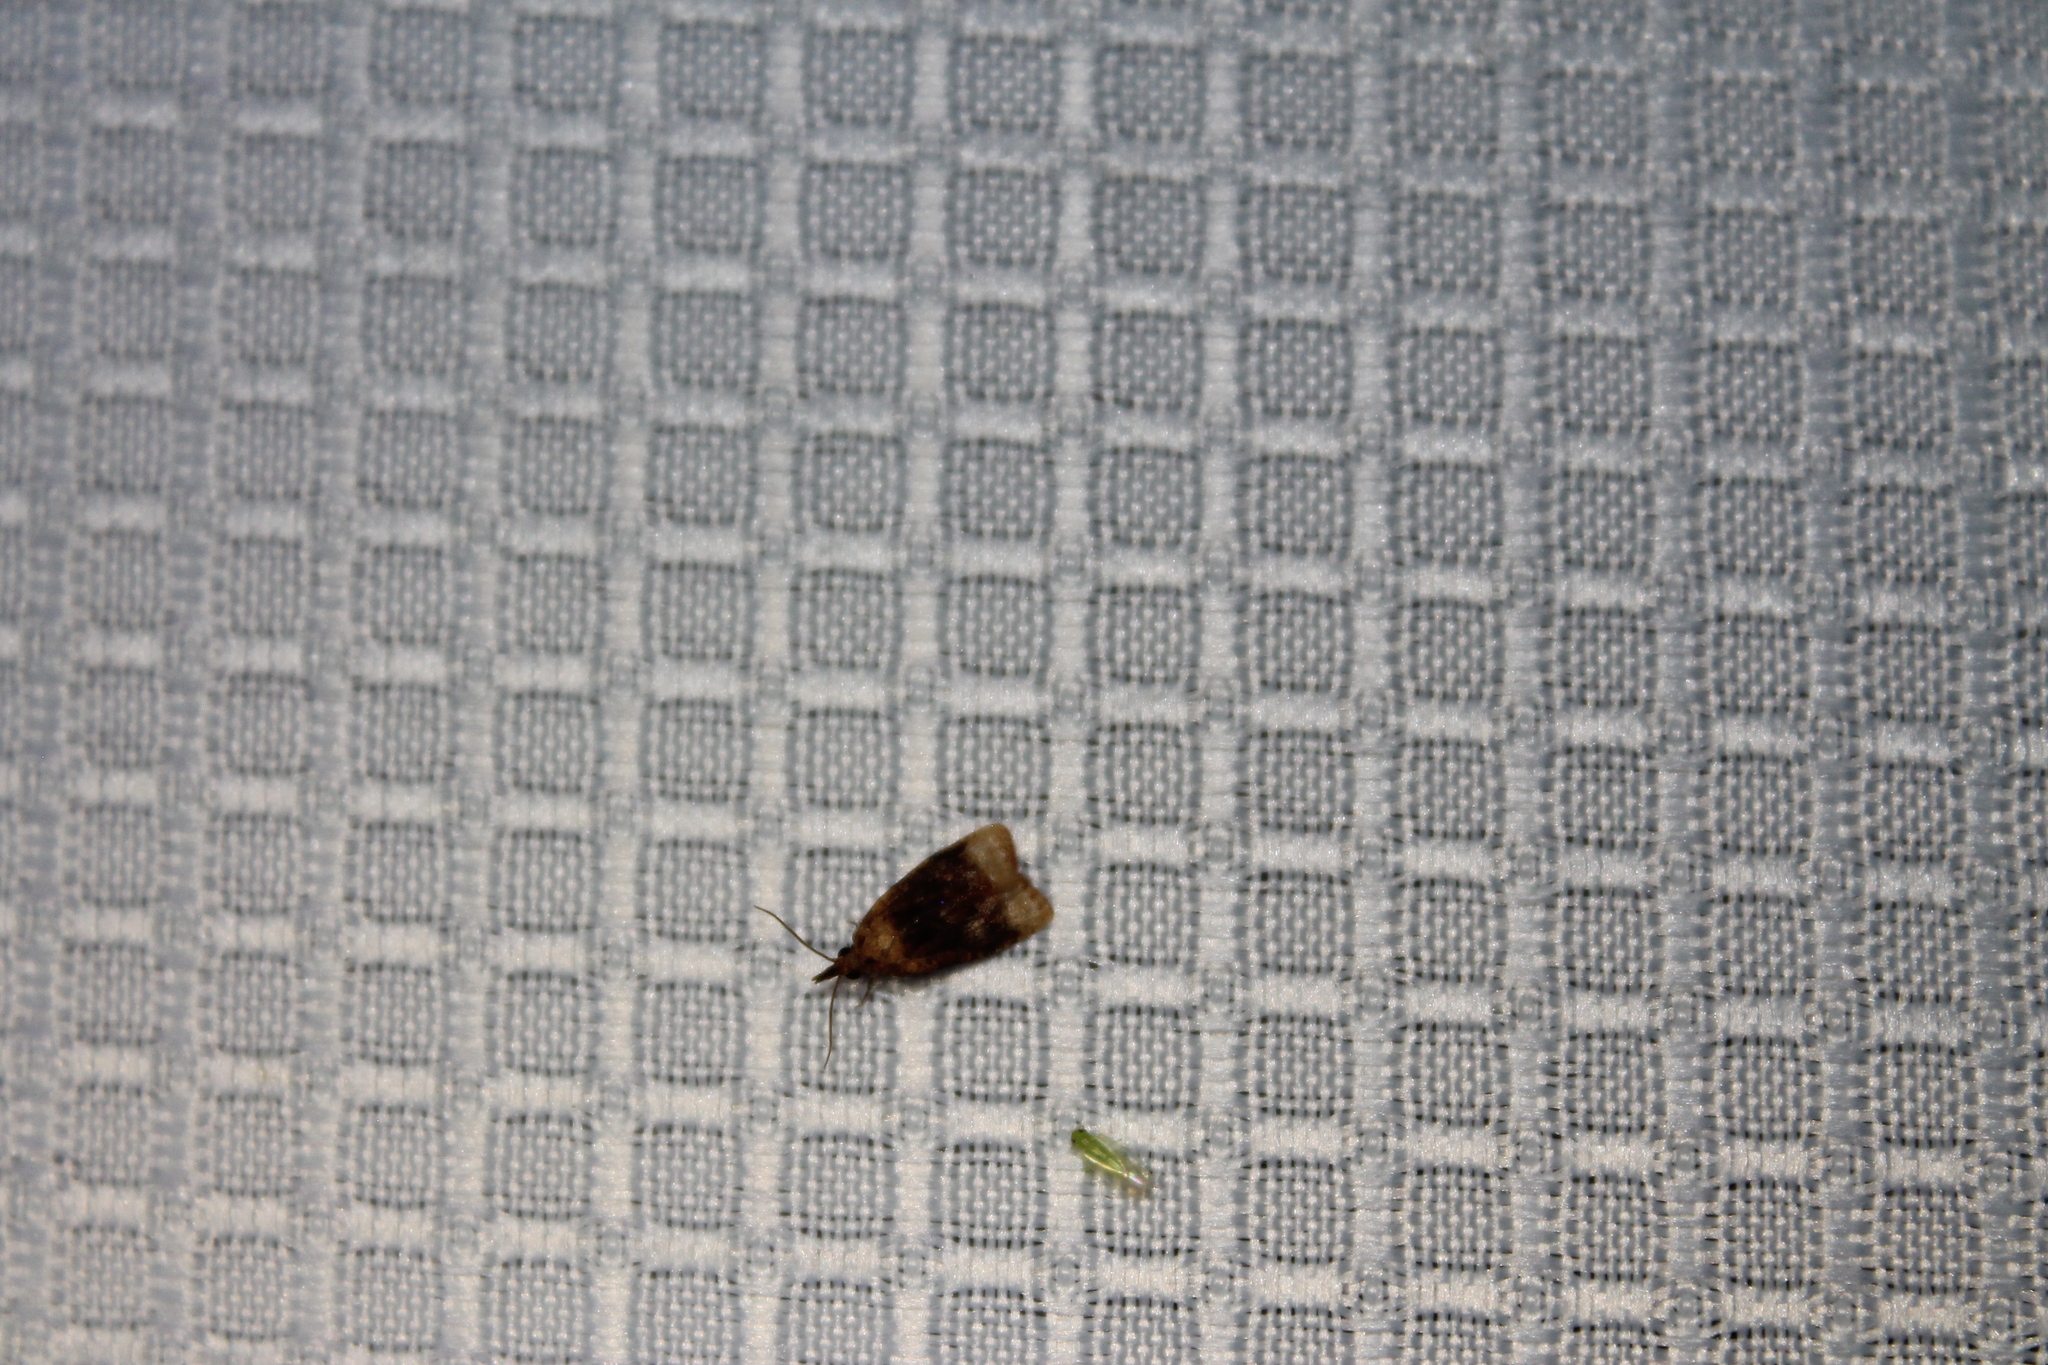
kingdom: Animalia
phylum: Arthropoda
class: Insecta
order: Lepidoptera
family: Tortricidae
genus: Platynota
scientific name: Platynota flavedana
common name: Black-shaded platynota moth
